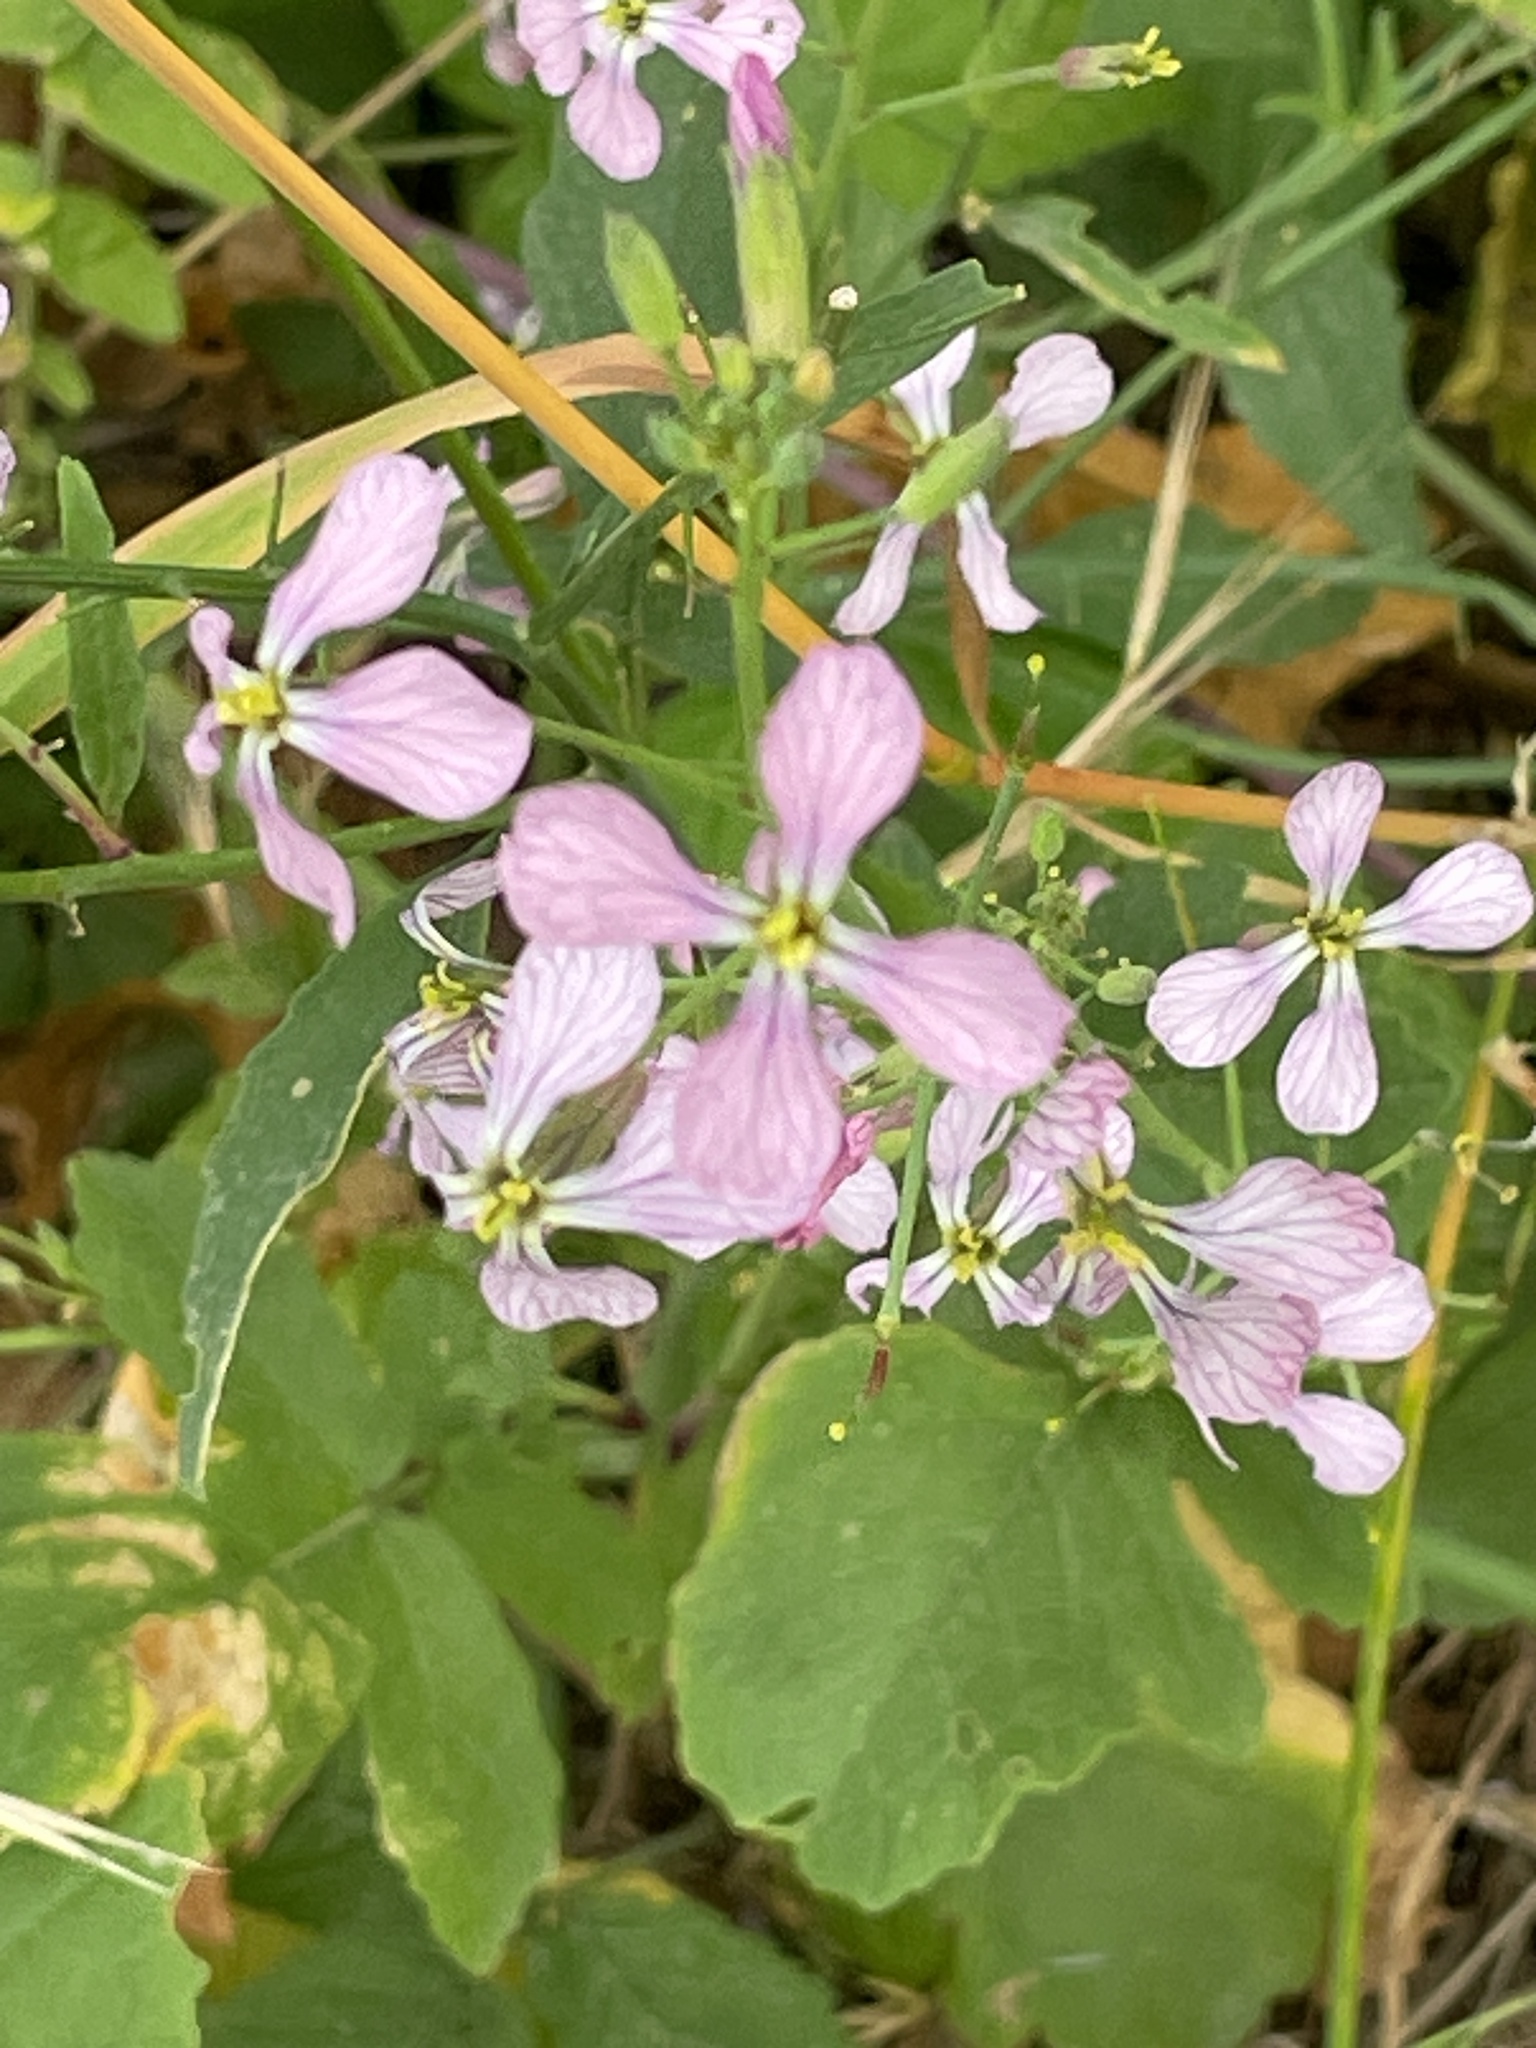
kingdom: Plantae
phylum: Tracheophyta
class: Magnoliopsida
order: Brassicales
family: Brassicaceae
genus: Raphanus
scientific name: Raphanus sativus
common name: Cultivated radish
